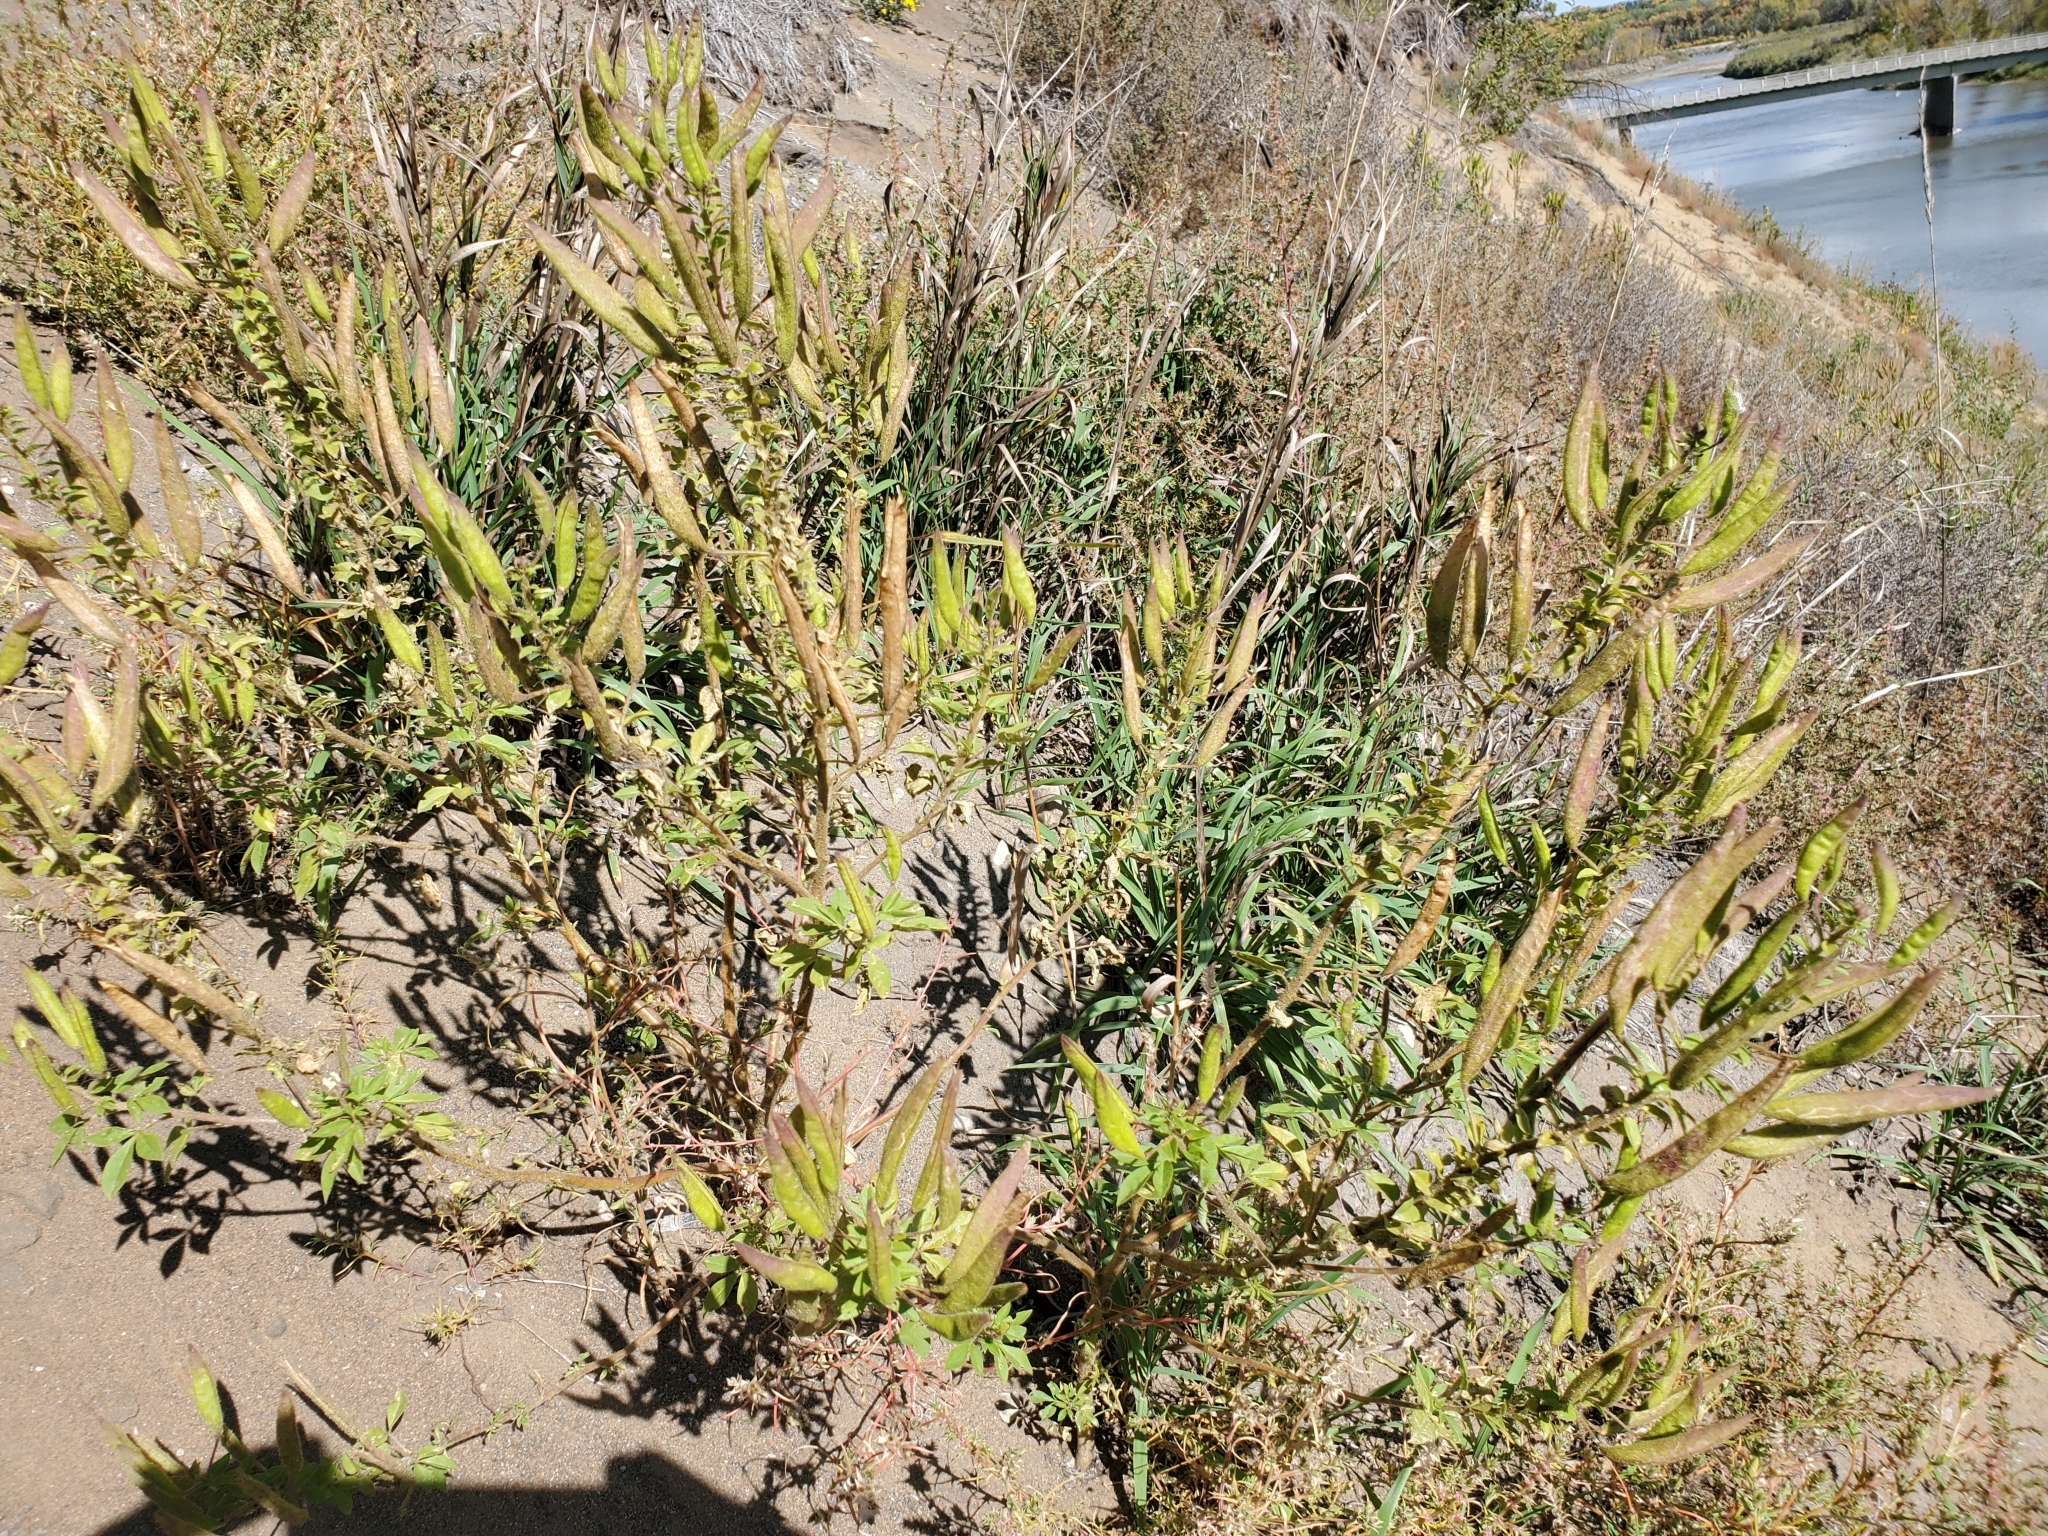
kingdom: Plantae
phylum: Tracheophyta
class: Magnoliopsida
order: Brassicales
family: Cleomaceae
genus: Polanisia
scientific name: Polanisia dodecandra
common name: Clammyweed
